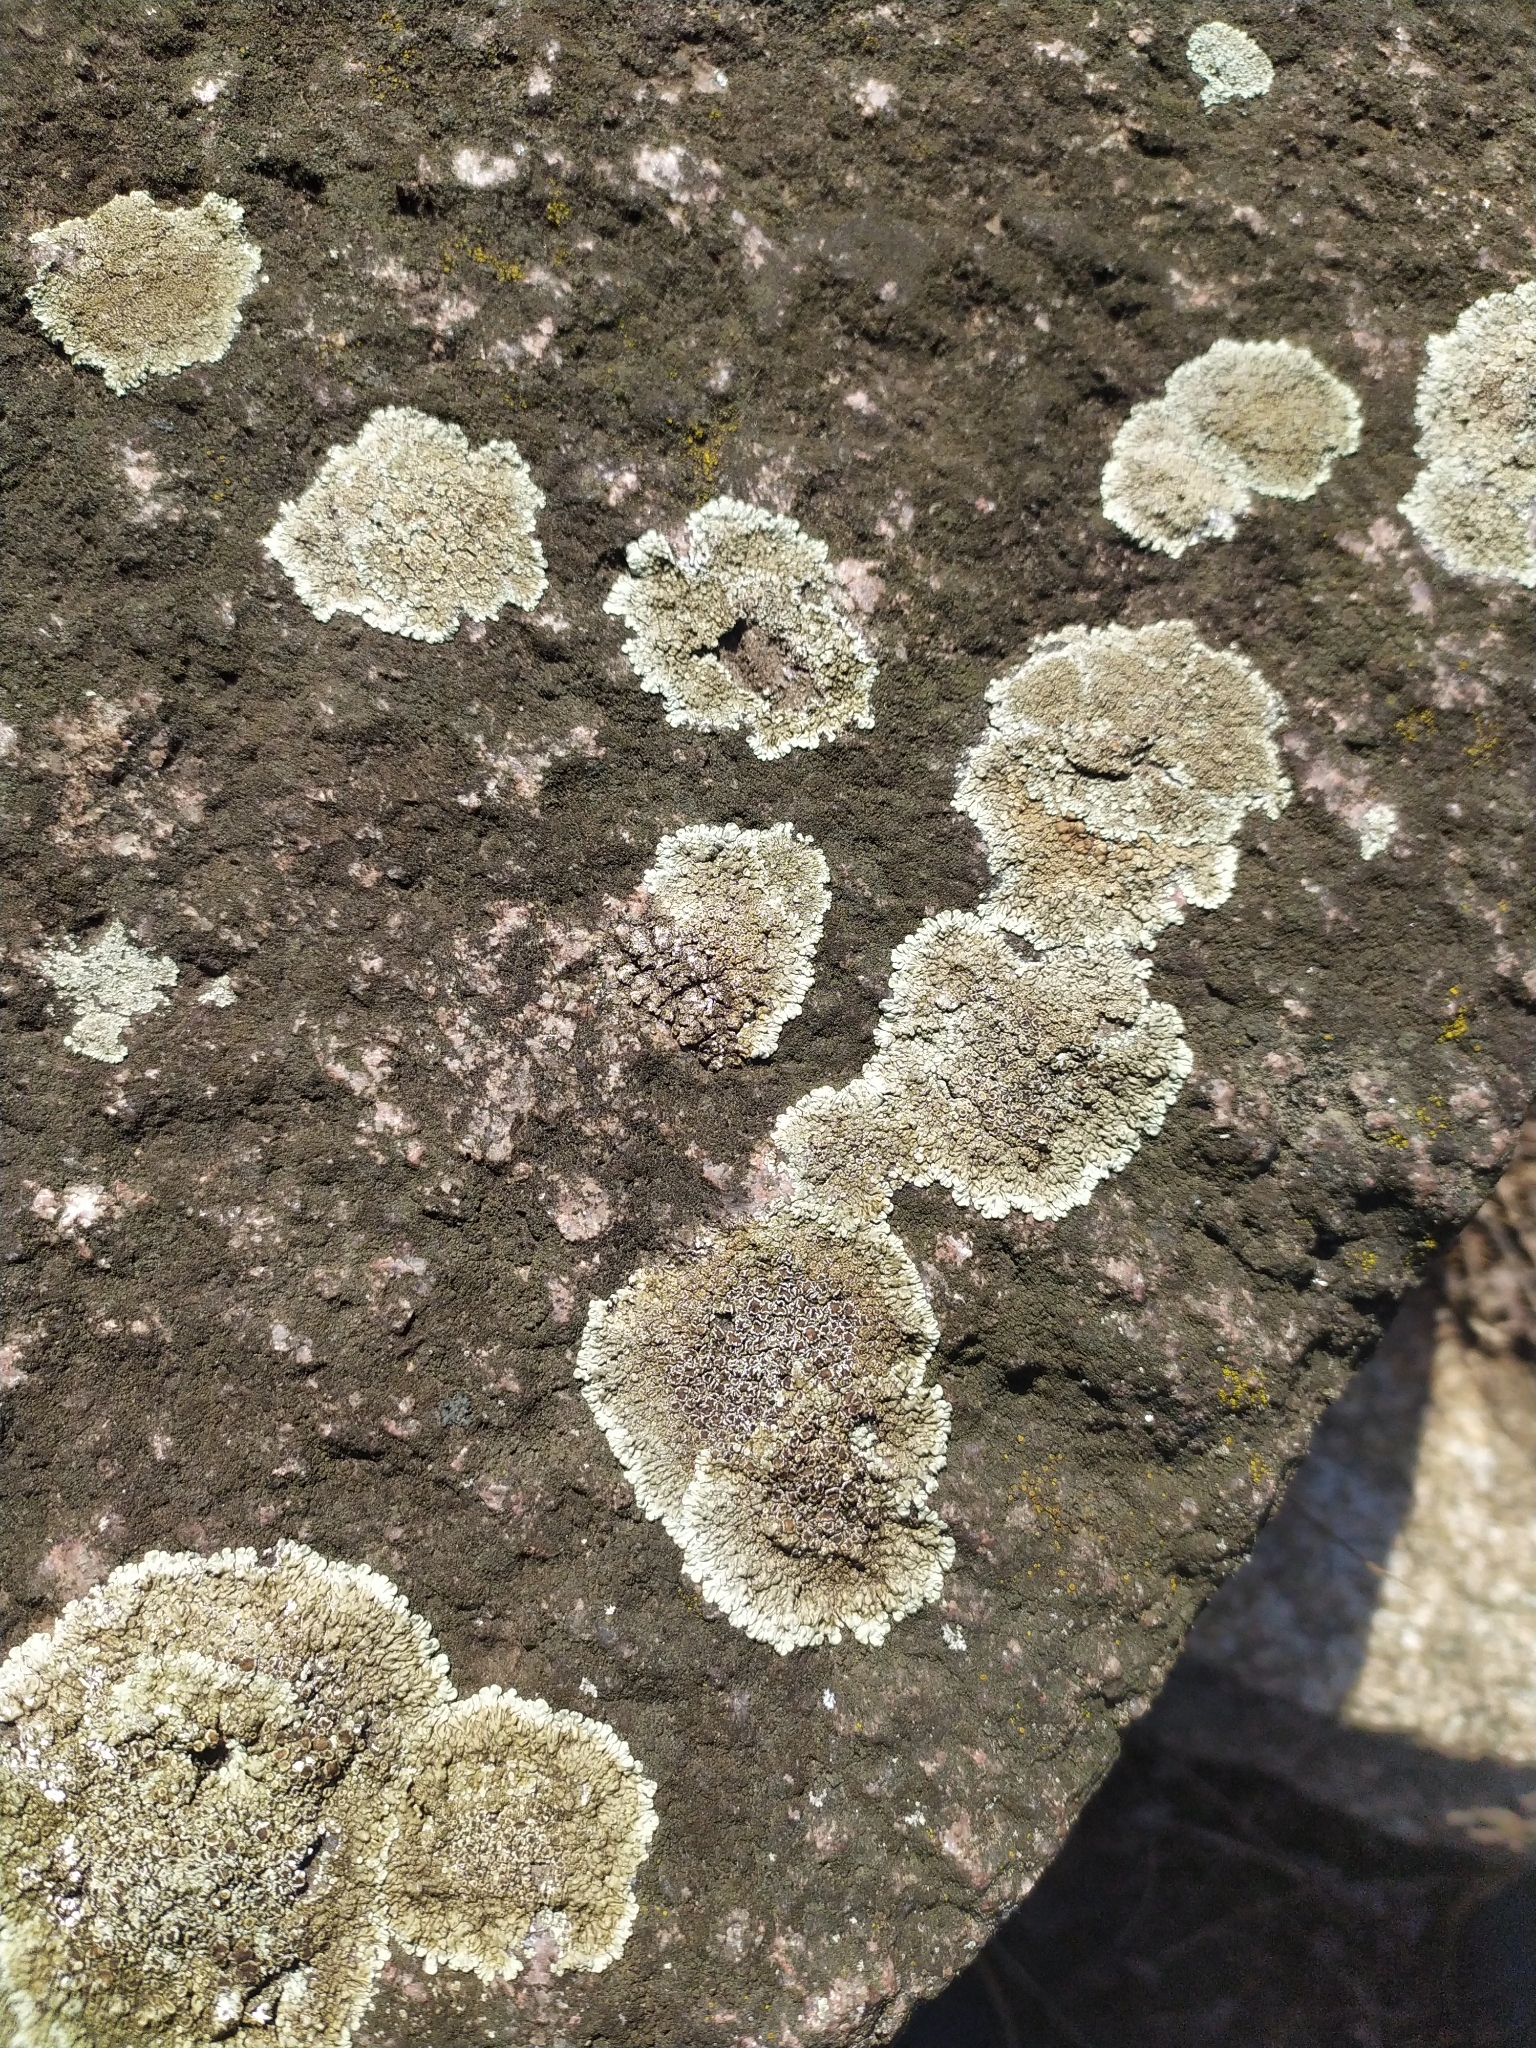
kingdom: Fungi
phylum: Ascomycota
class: Lecanoromycetes
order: Lecanorales
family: Lecanoraceae
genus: Protoparmeliopsis
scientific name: Protoparmeliopsis muralis
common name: Stonewall rim lichen
